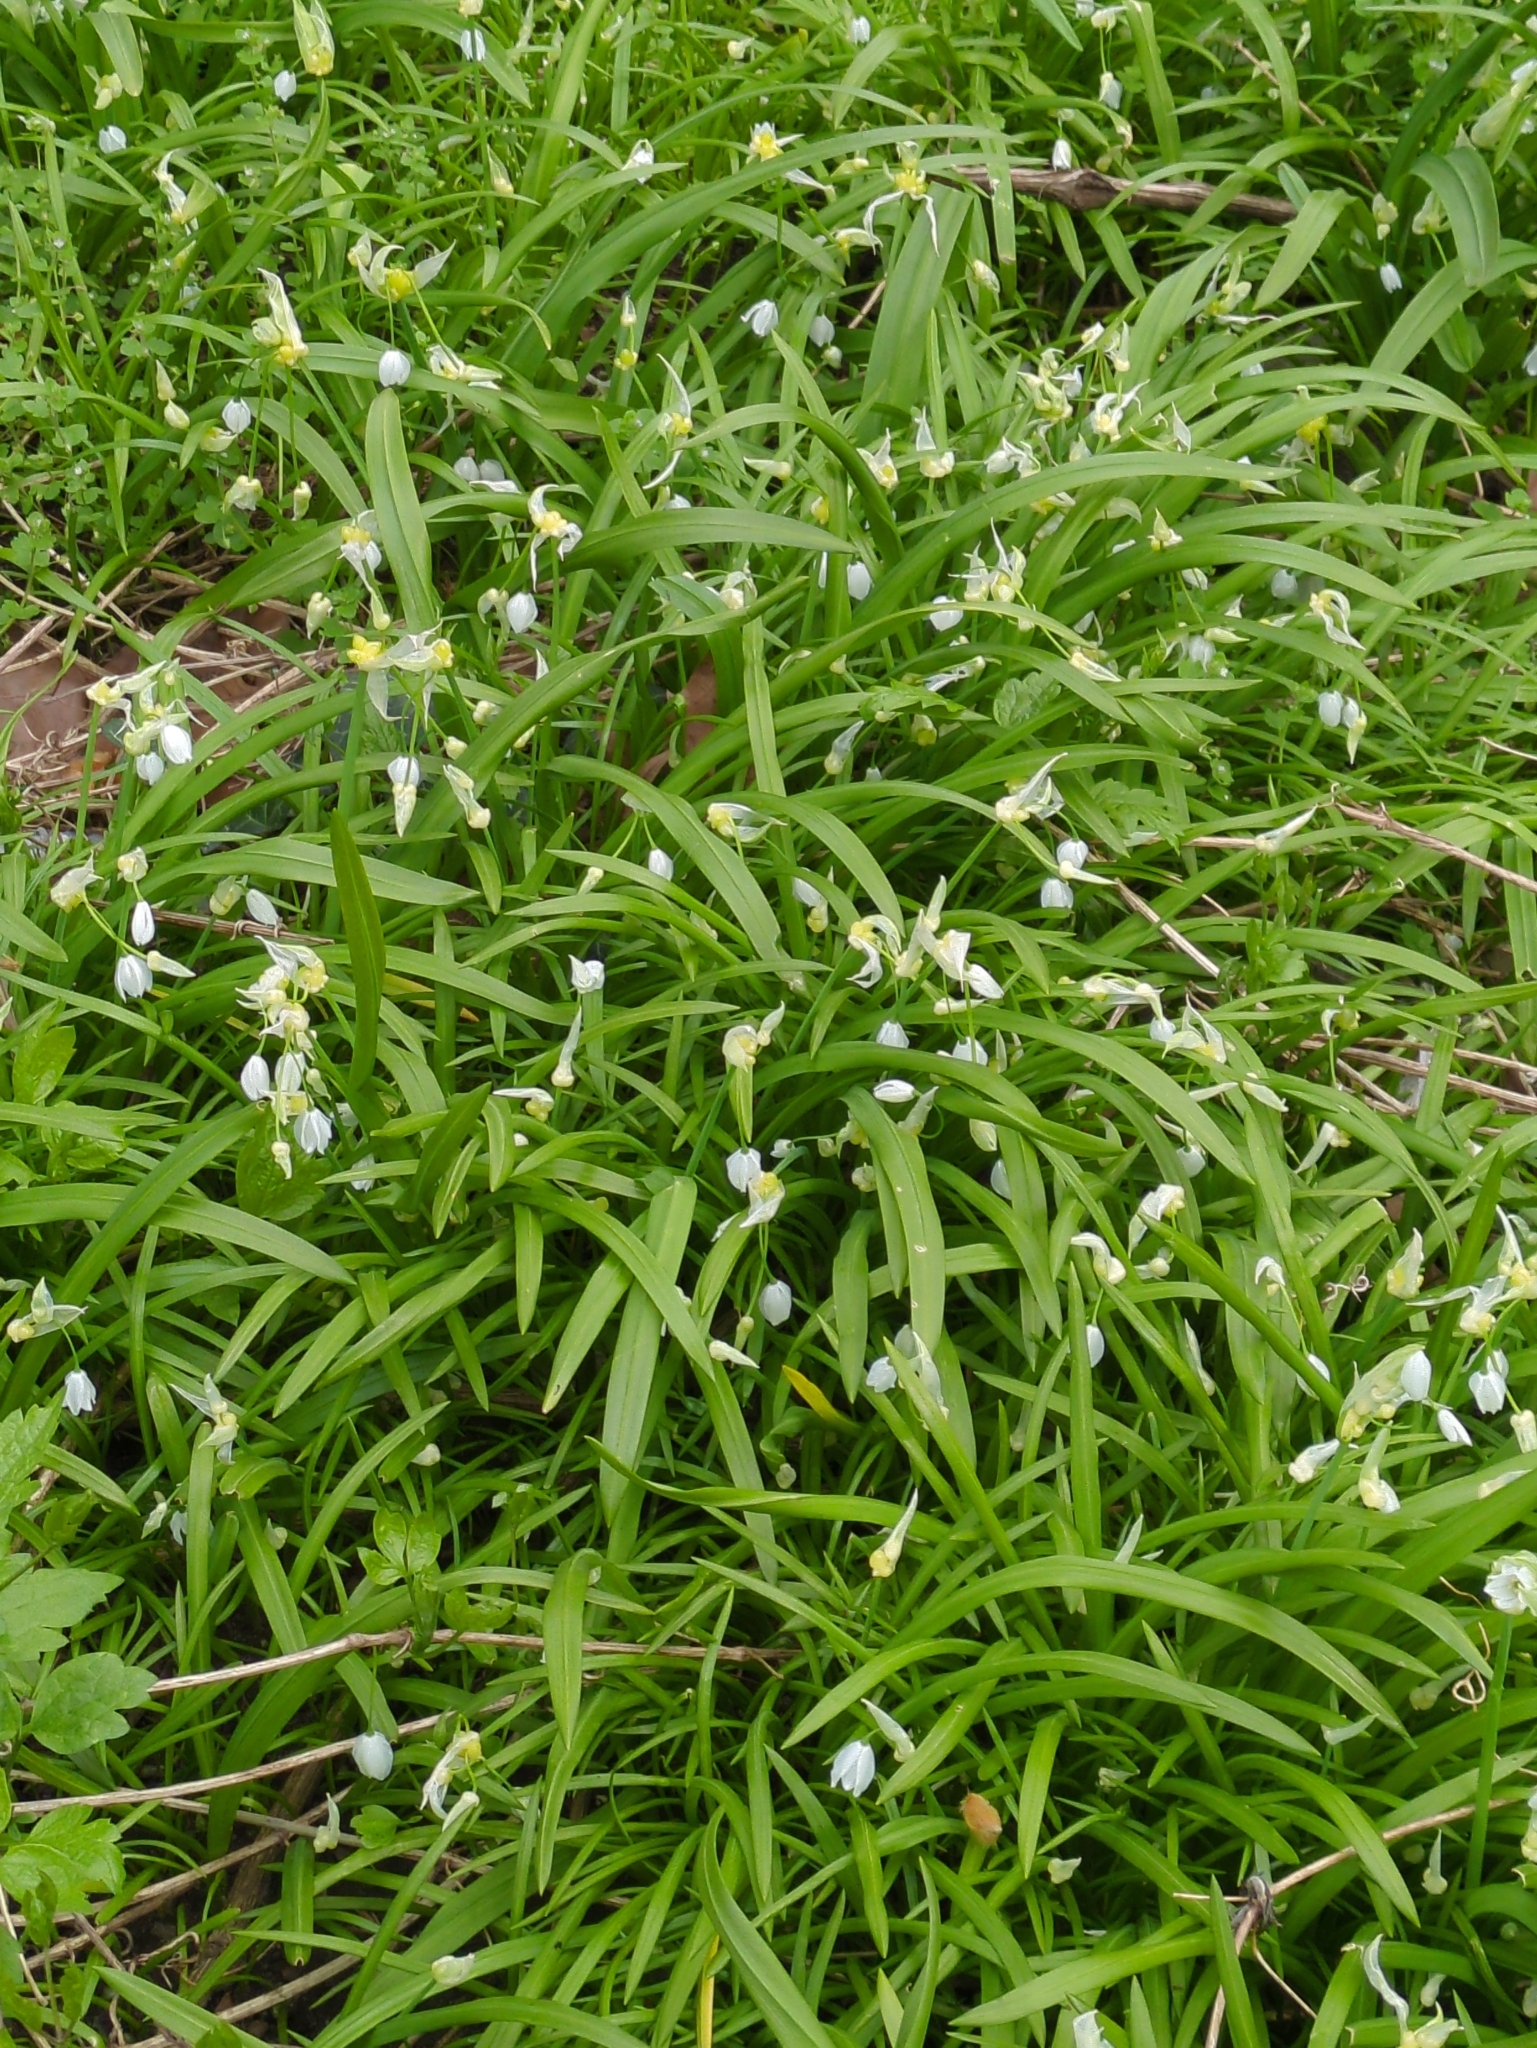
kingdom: Plantae
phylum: Tracheophyta
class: Liliopsida
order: Asparagales
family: Amaryllidaceae
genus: Allium
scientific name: Allium paradoxum
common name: Few-flowered garlic
